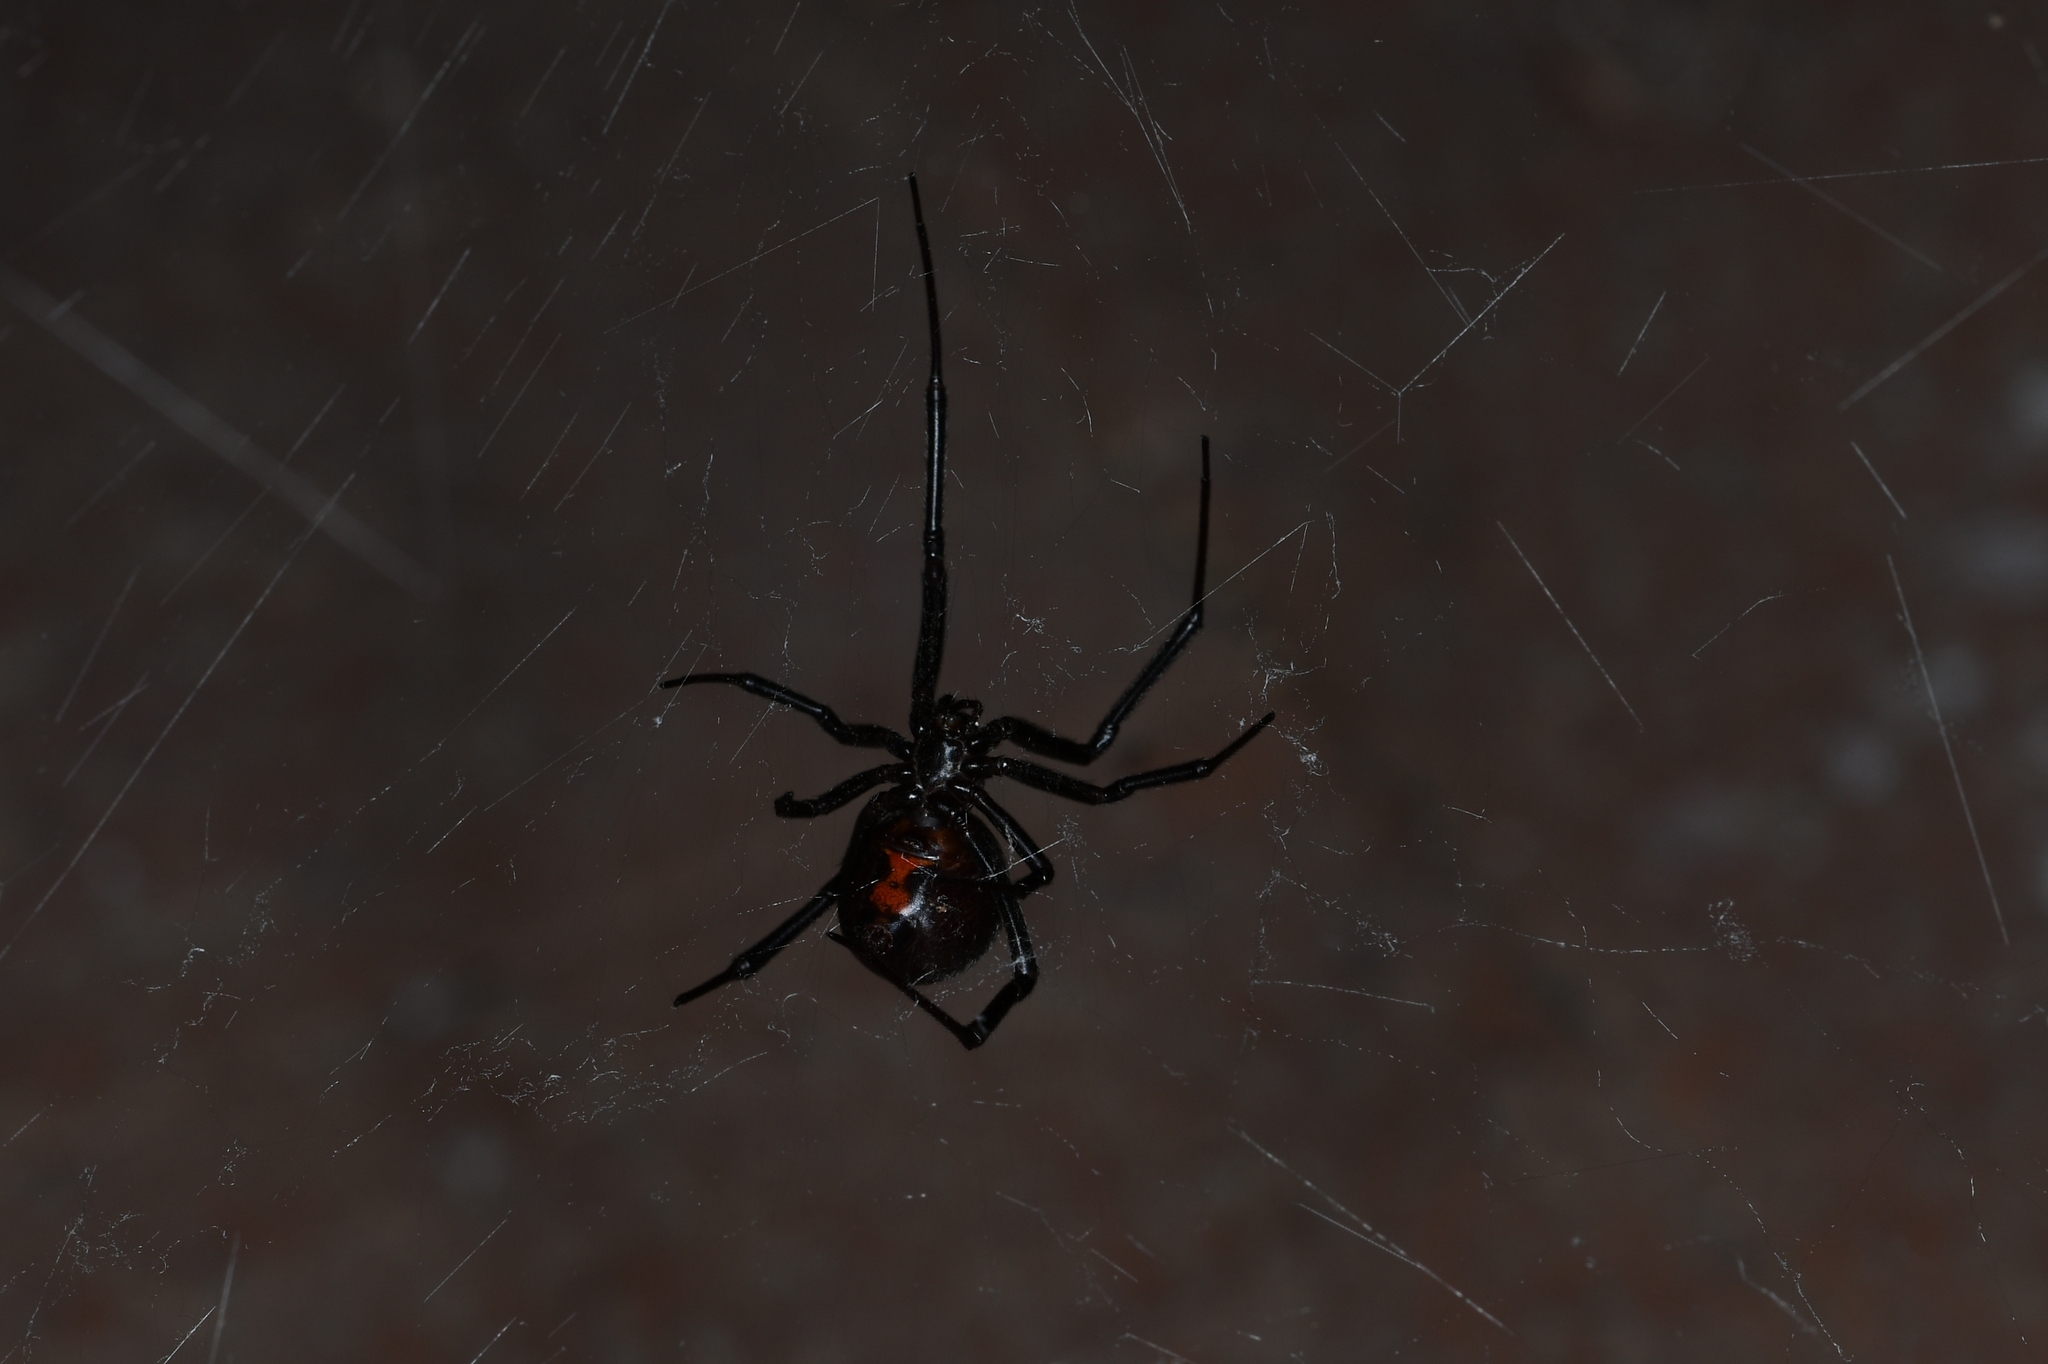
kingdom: Animalia
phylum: Arthropoda
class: Arachnida
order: Araneae
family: Theridiidae
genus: Latrodectus
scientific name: Latrodectus hesperus
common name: Western black widow
